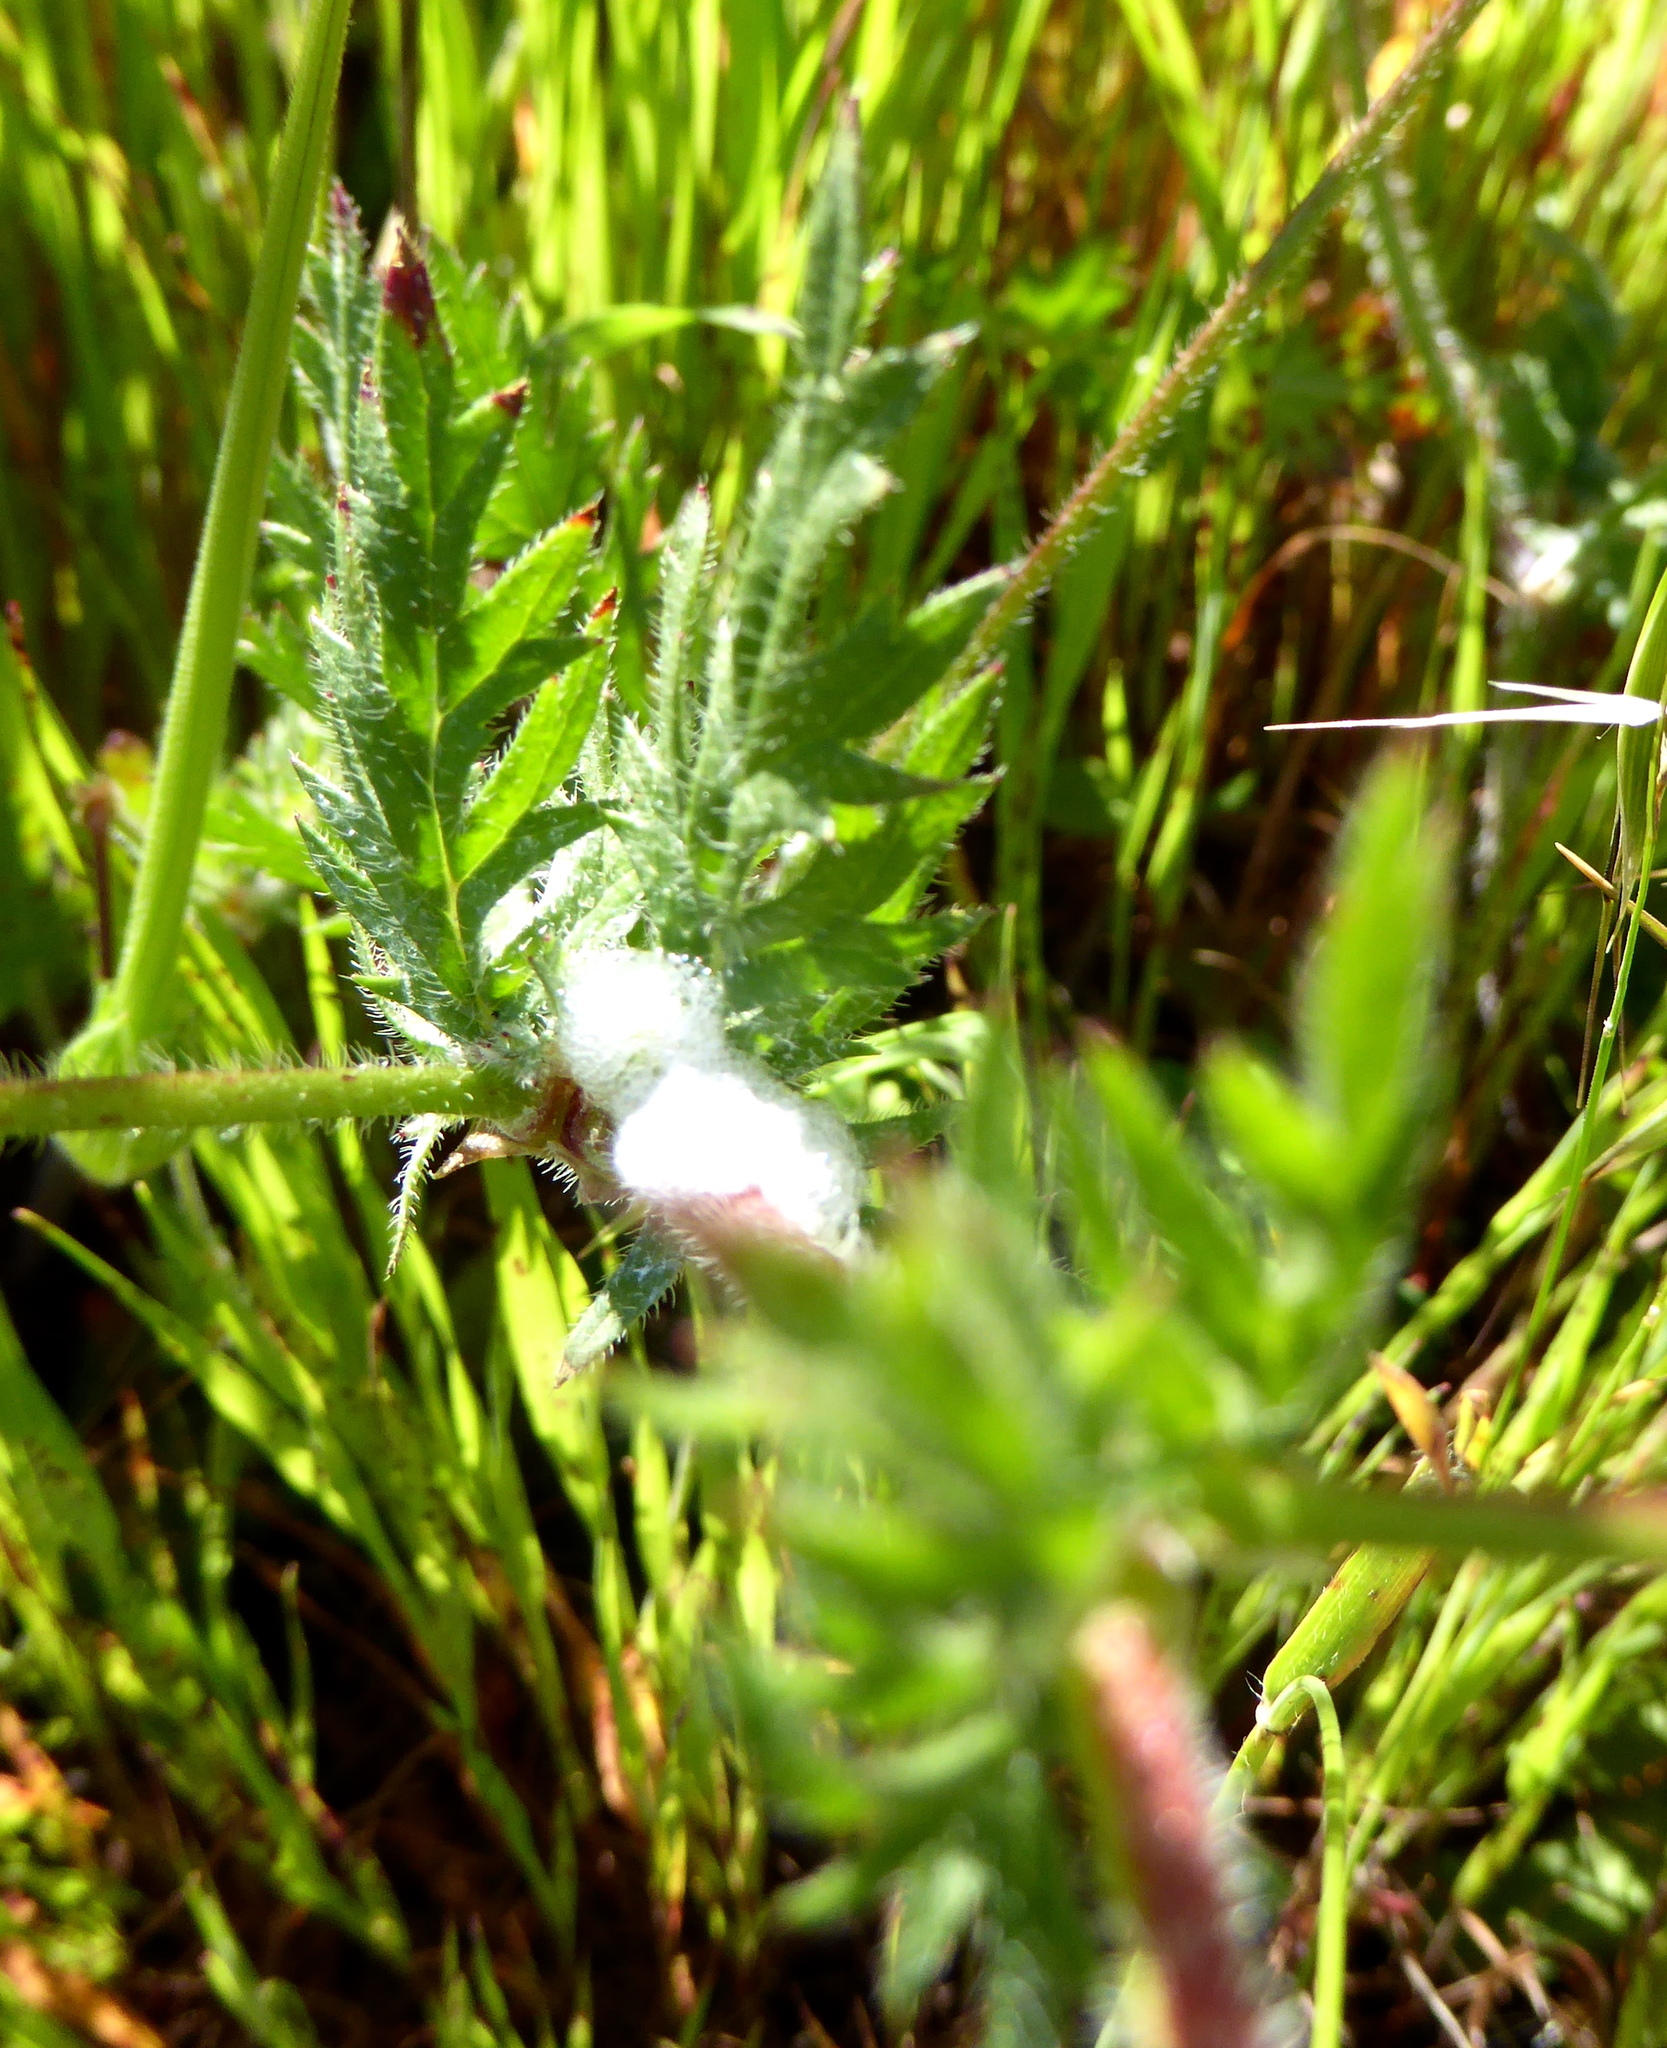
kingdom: Plantae
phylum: Tracheophyta
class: Magnoliopsida
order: Geraniales
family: Geraniaceae
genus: Erodium
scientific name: Erodium botrys
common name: Mediterranean stork's-bill
